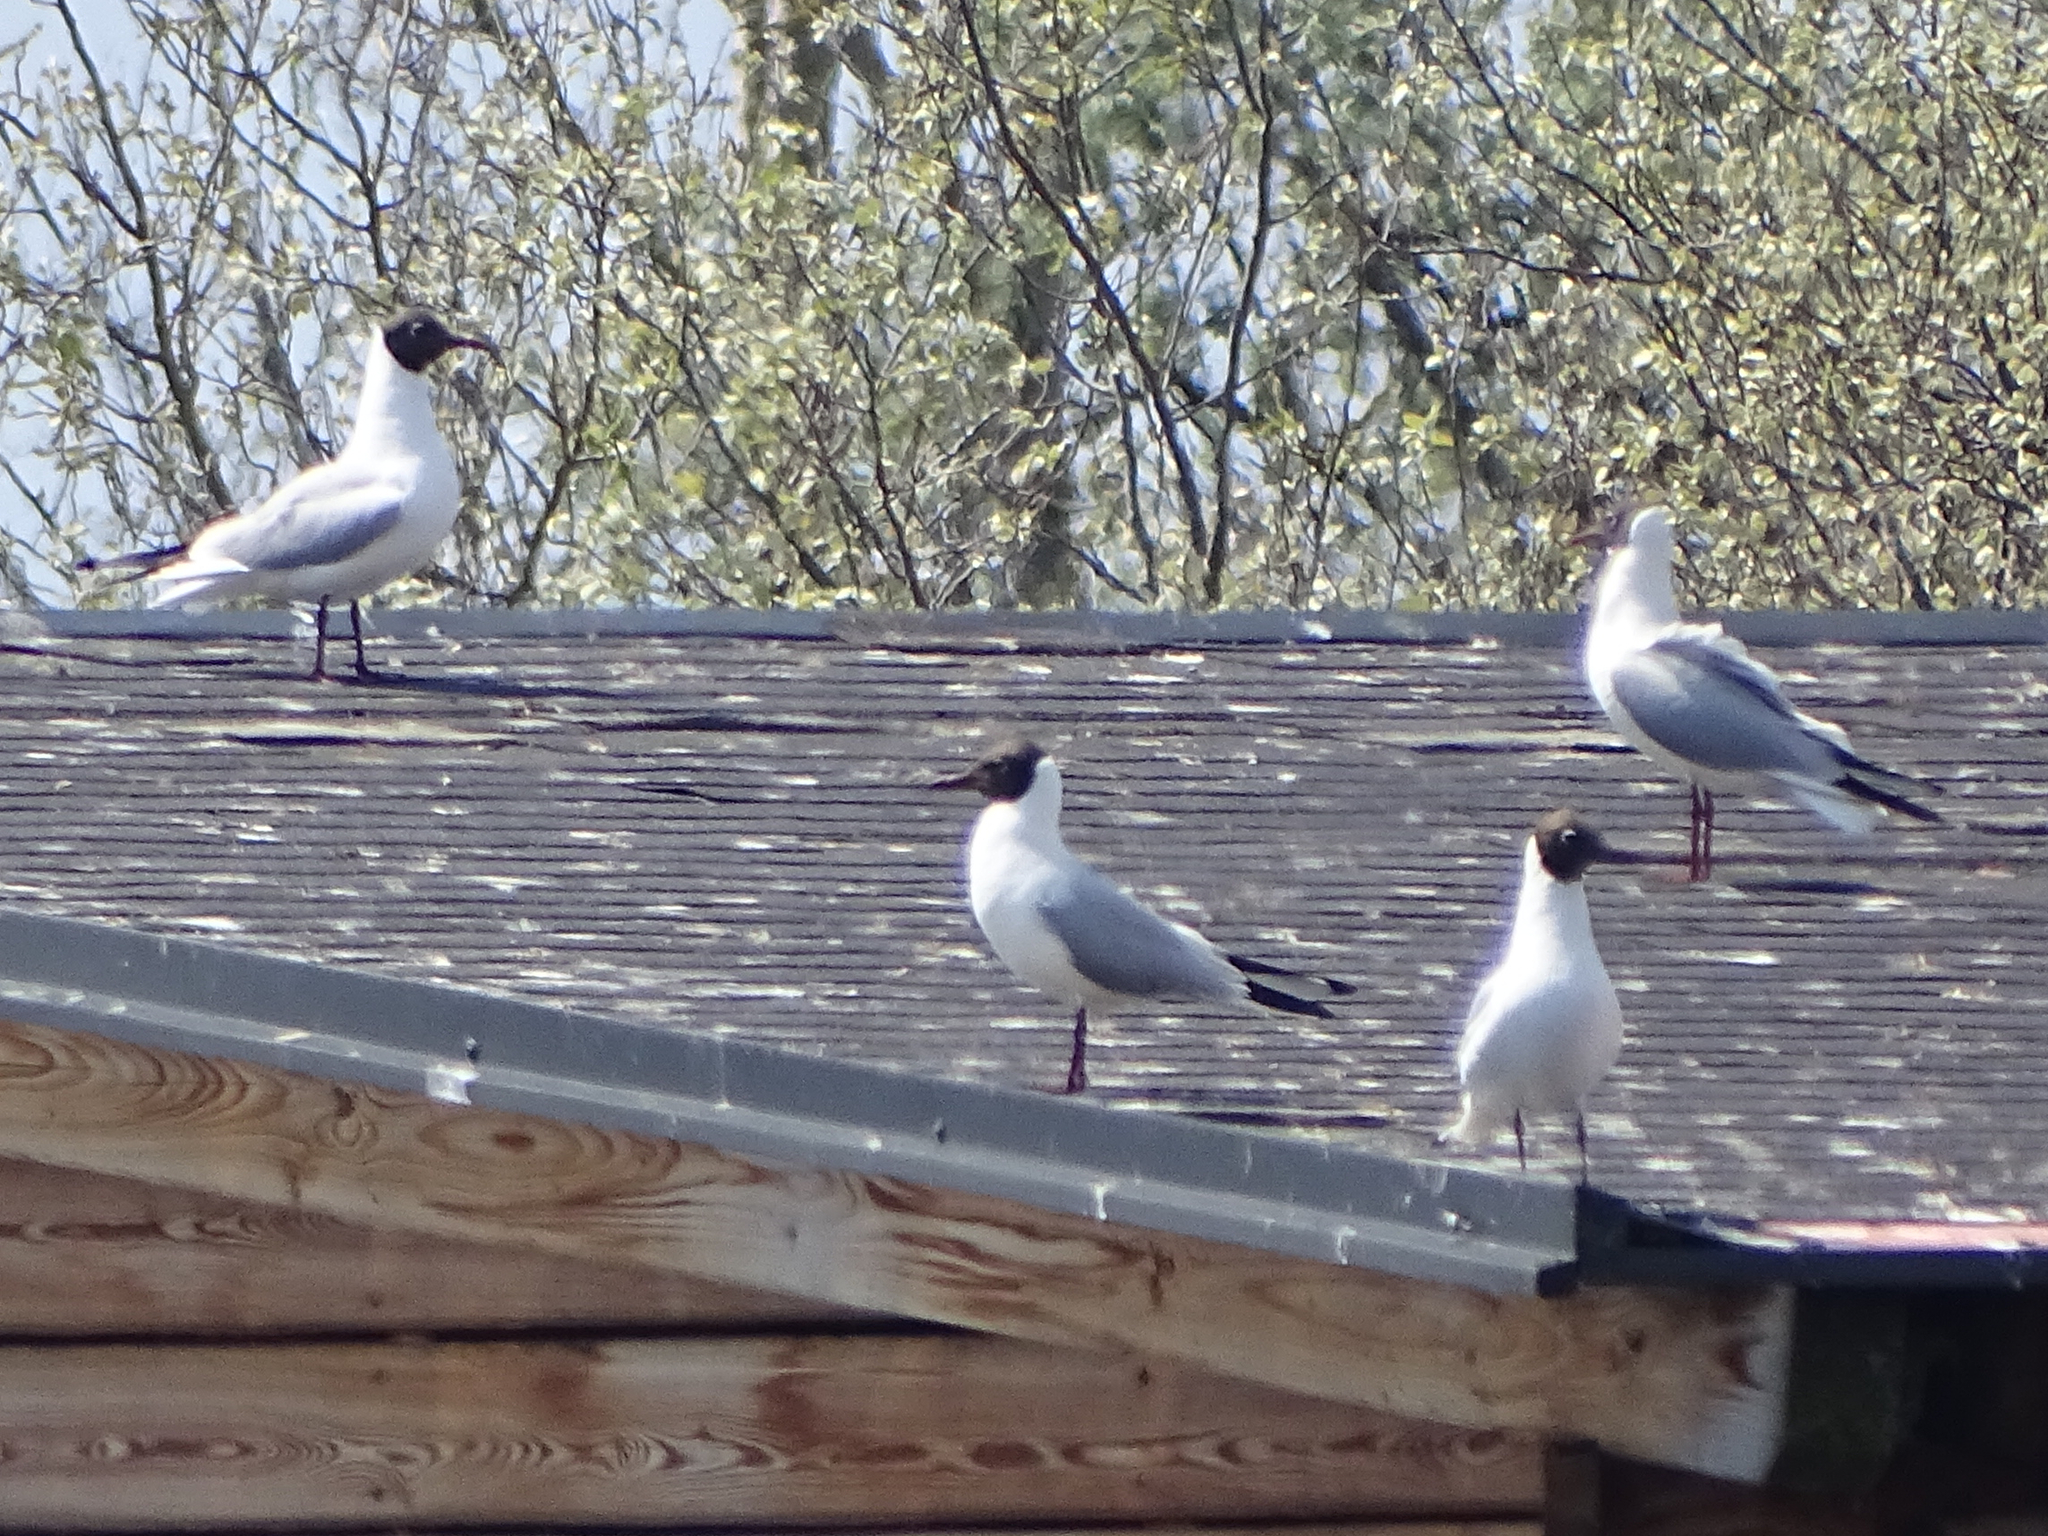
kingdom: Animalia
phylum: Chordata
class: Aves
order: Charadriiformes
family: Laridae
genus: Chroicocephalus
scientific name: Chroicocephalus ridibundus
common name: Black-headed gull
